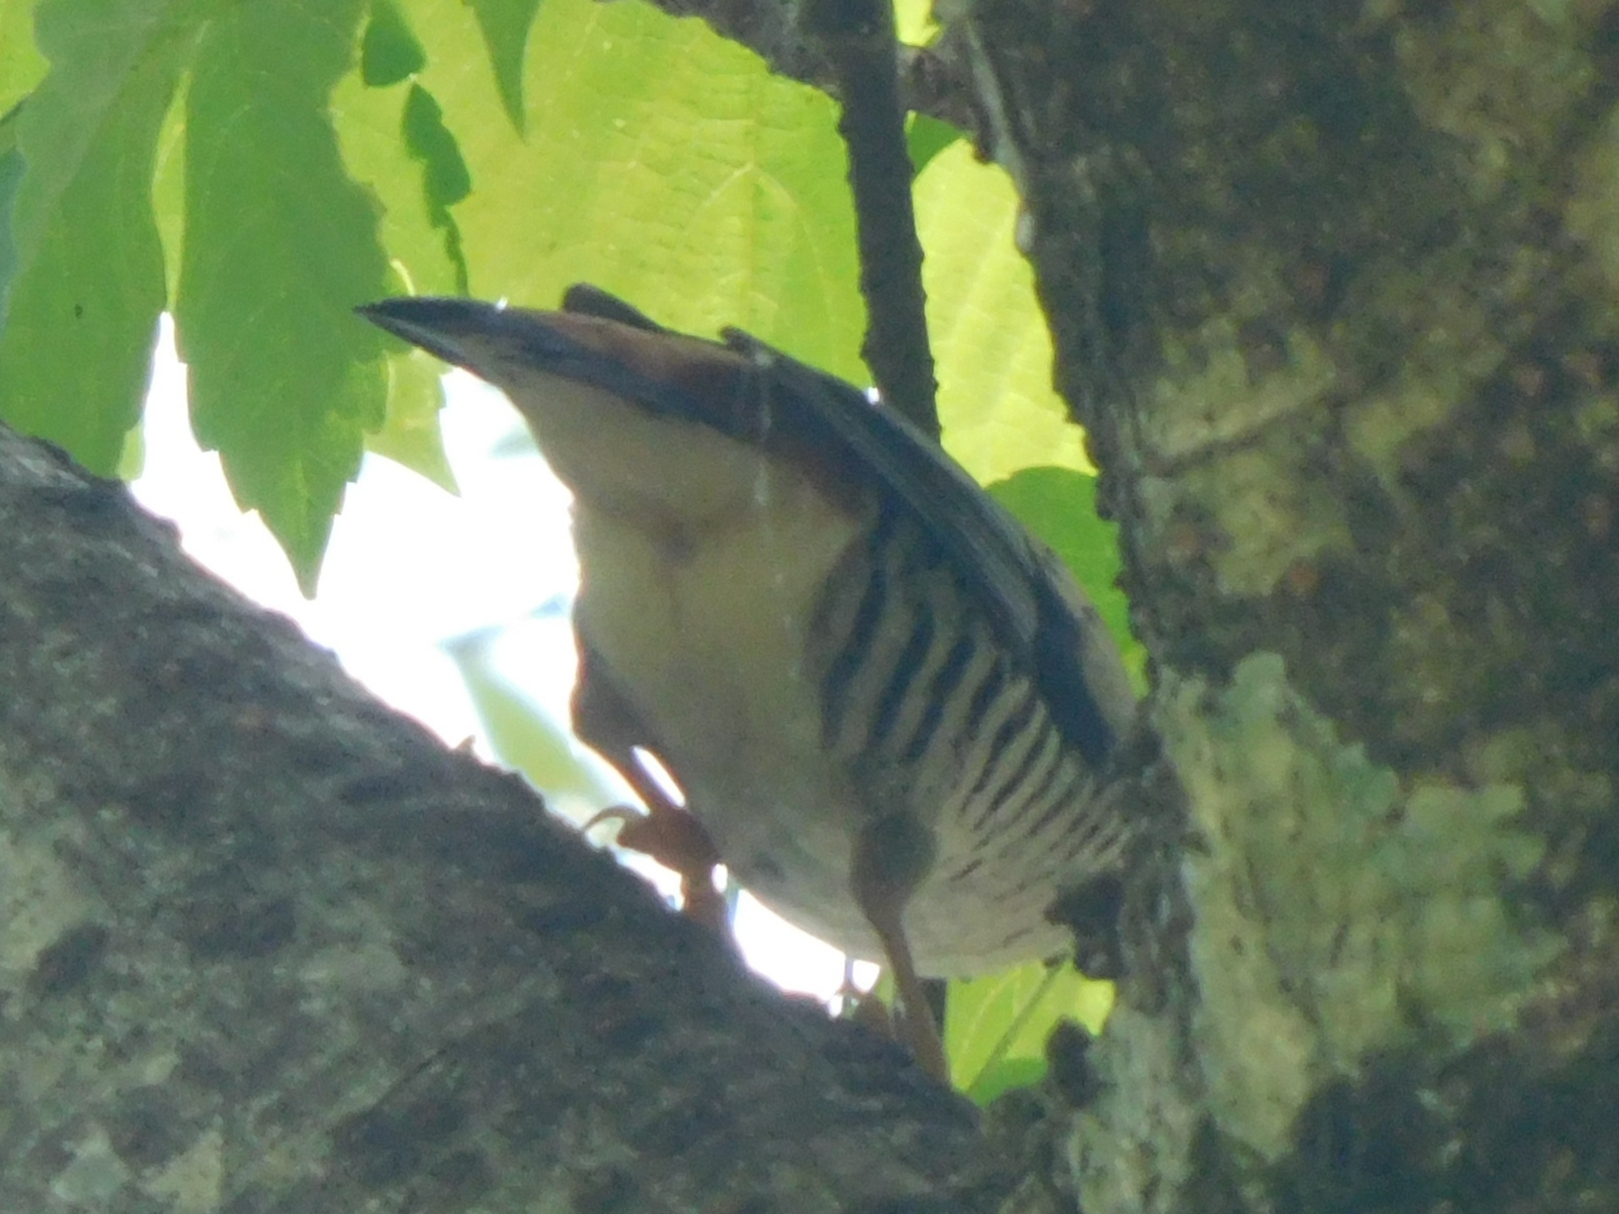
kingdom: Animalia
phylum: Chordata
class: Aves
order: Passeriformes
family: Leiothrichidae
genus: Cutia
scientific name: Cutia nipalensis
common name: Himalayan cutia
